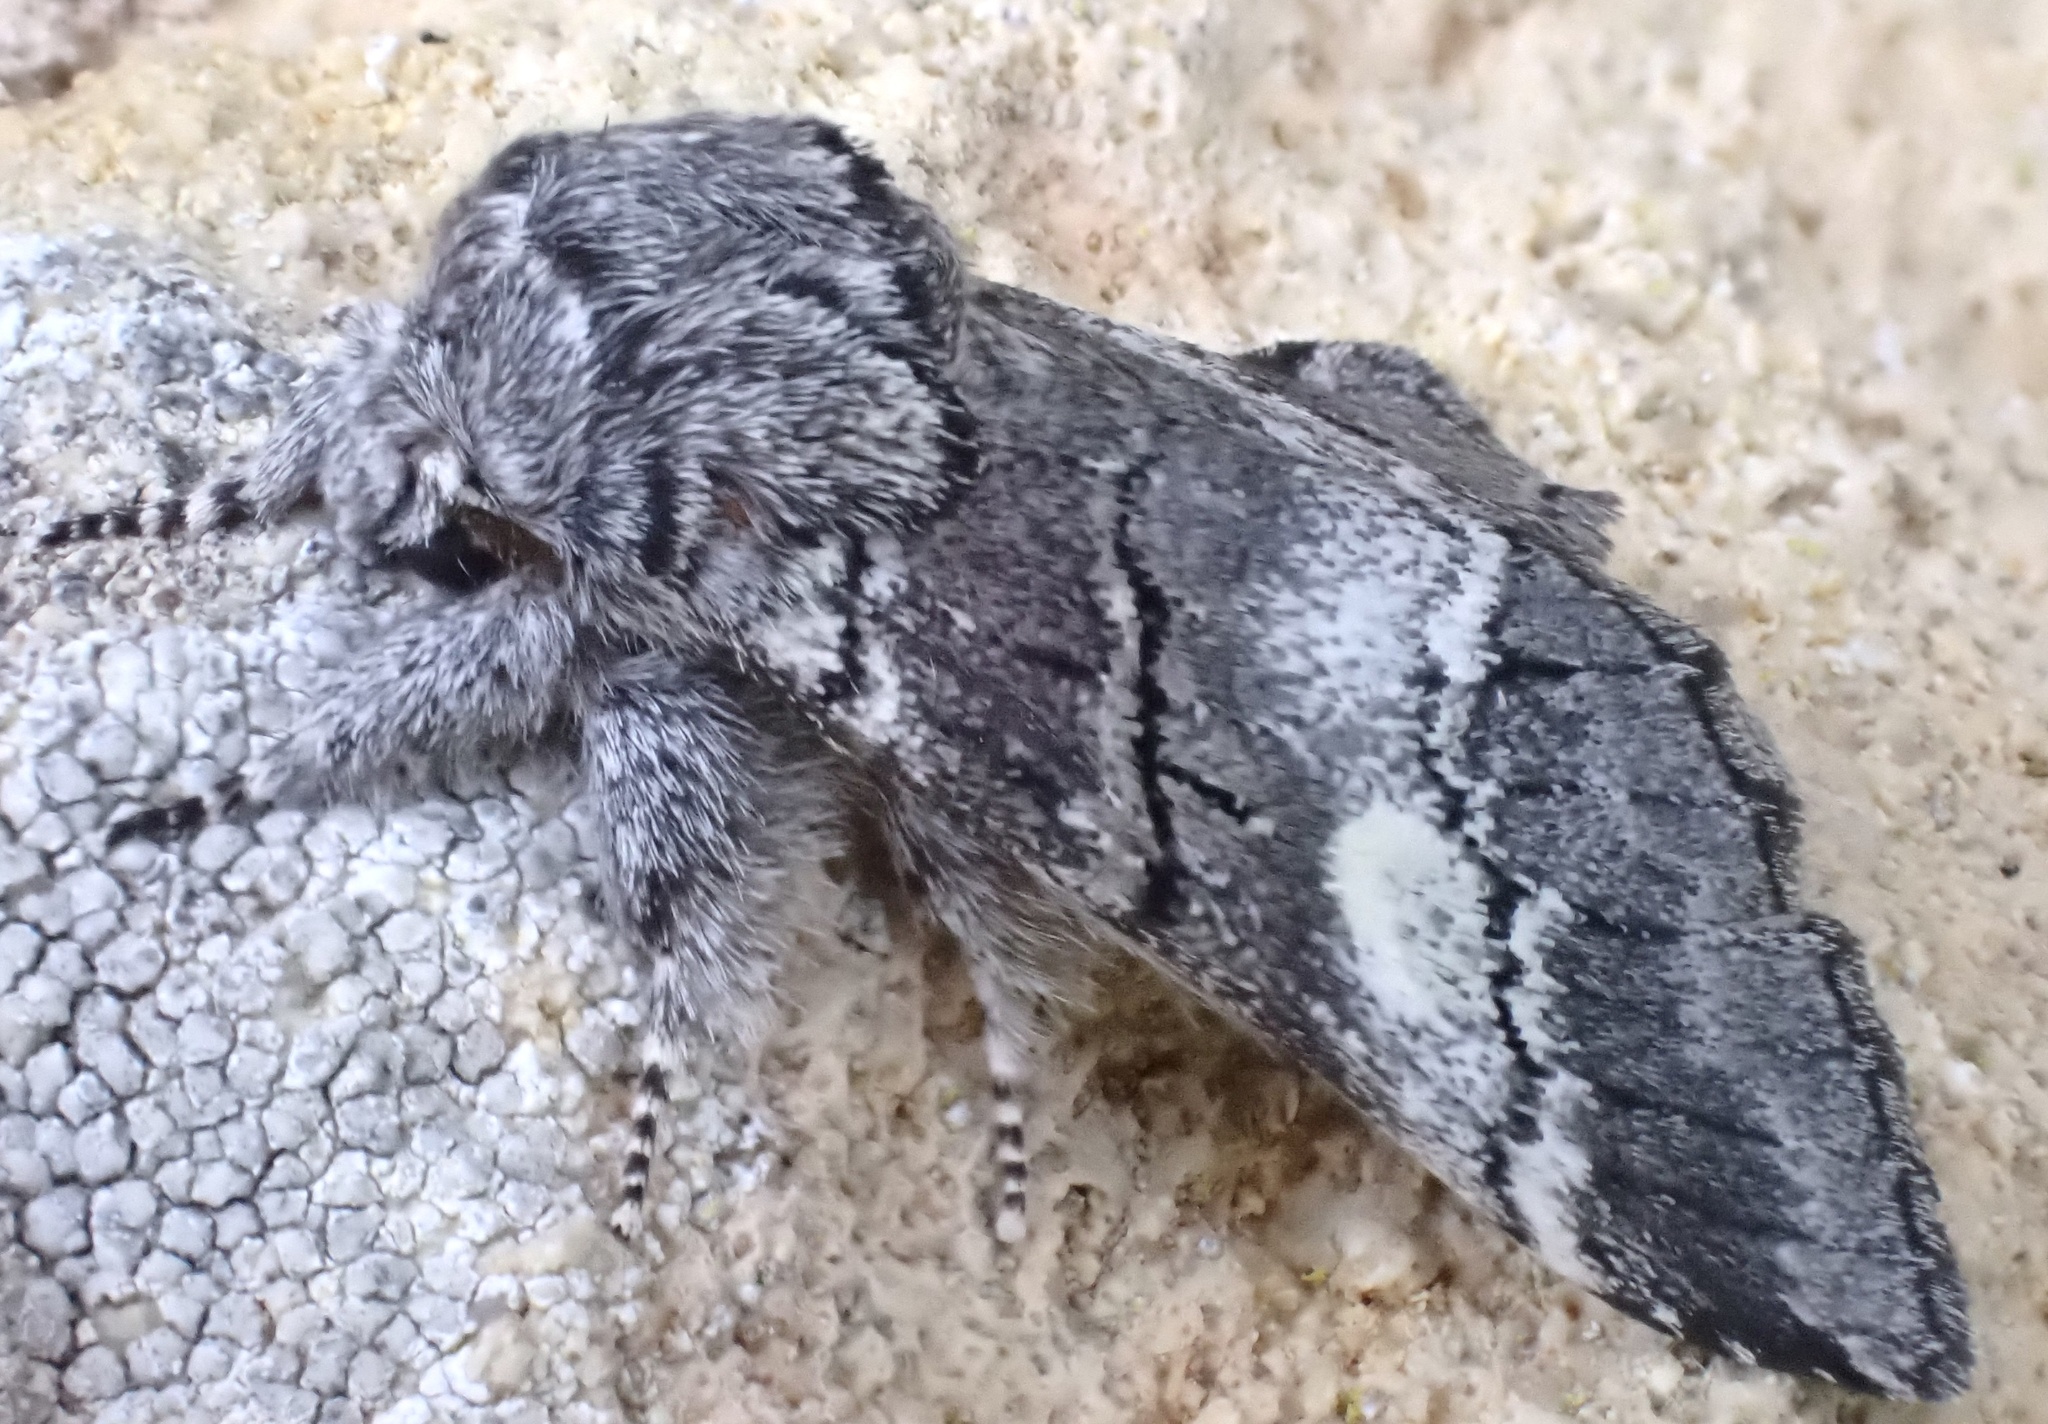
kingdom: Animalia
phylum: Arthropoda
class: Insecta
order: Lepidoptera
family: Notodontidae
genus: Drymonia
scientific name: Drymonia querna
